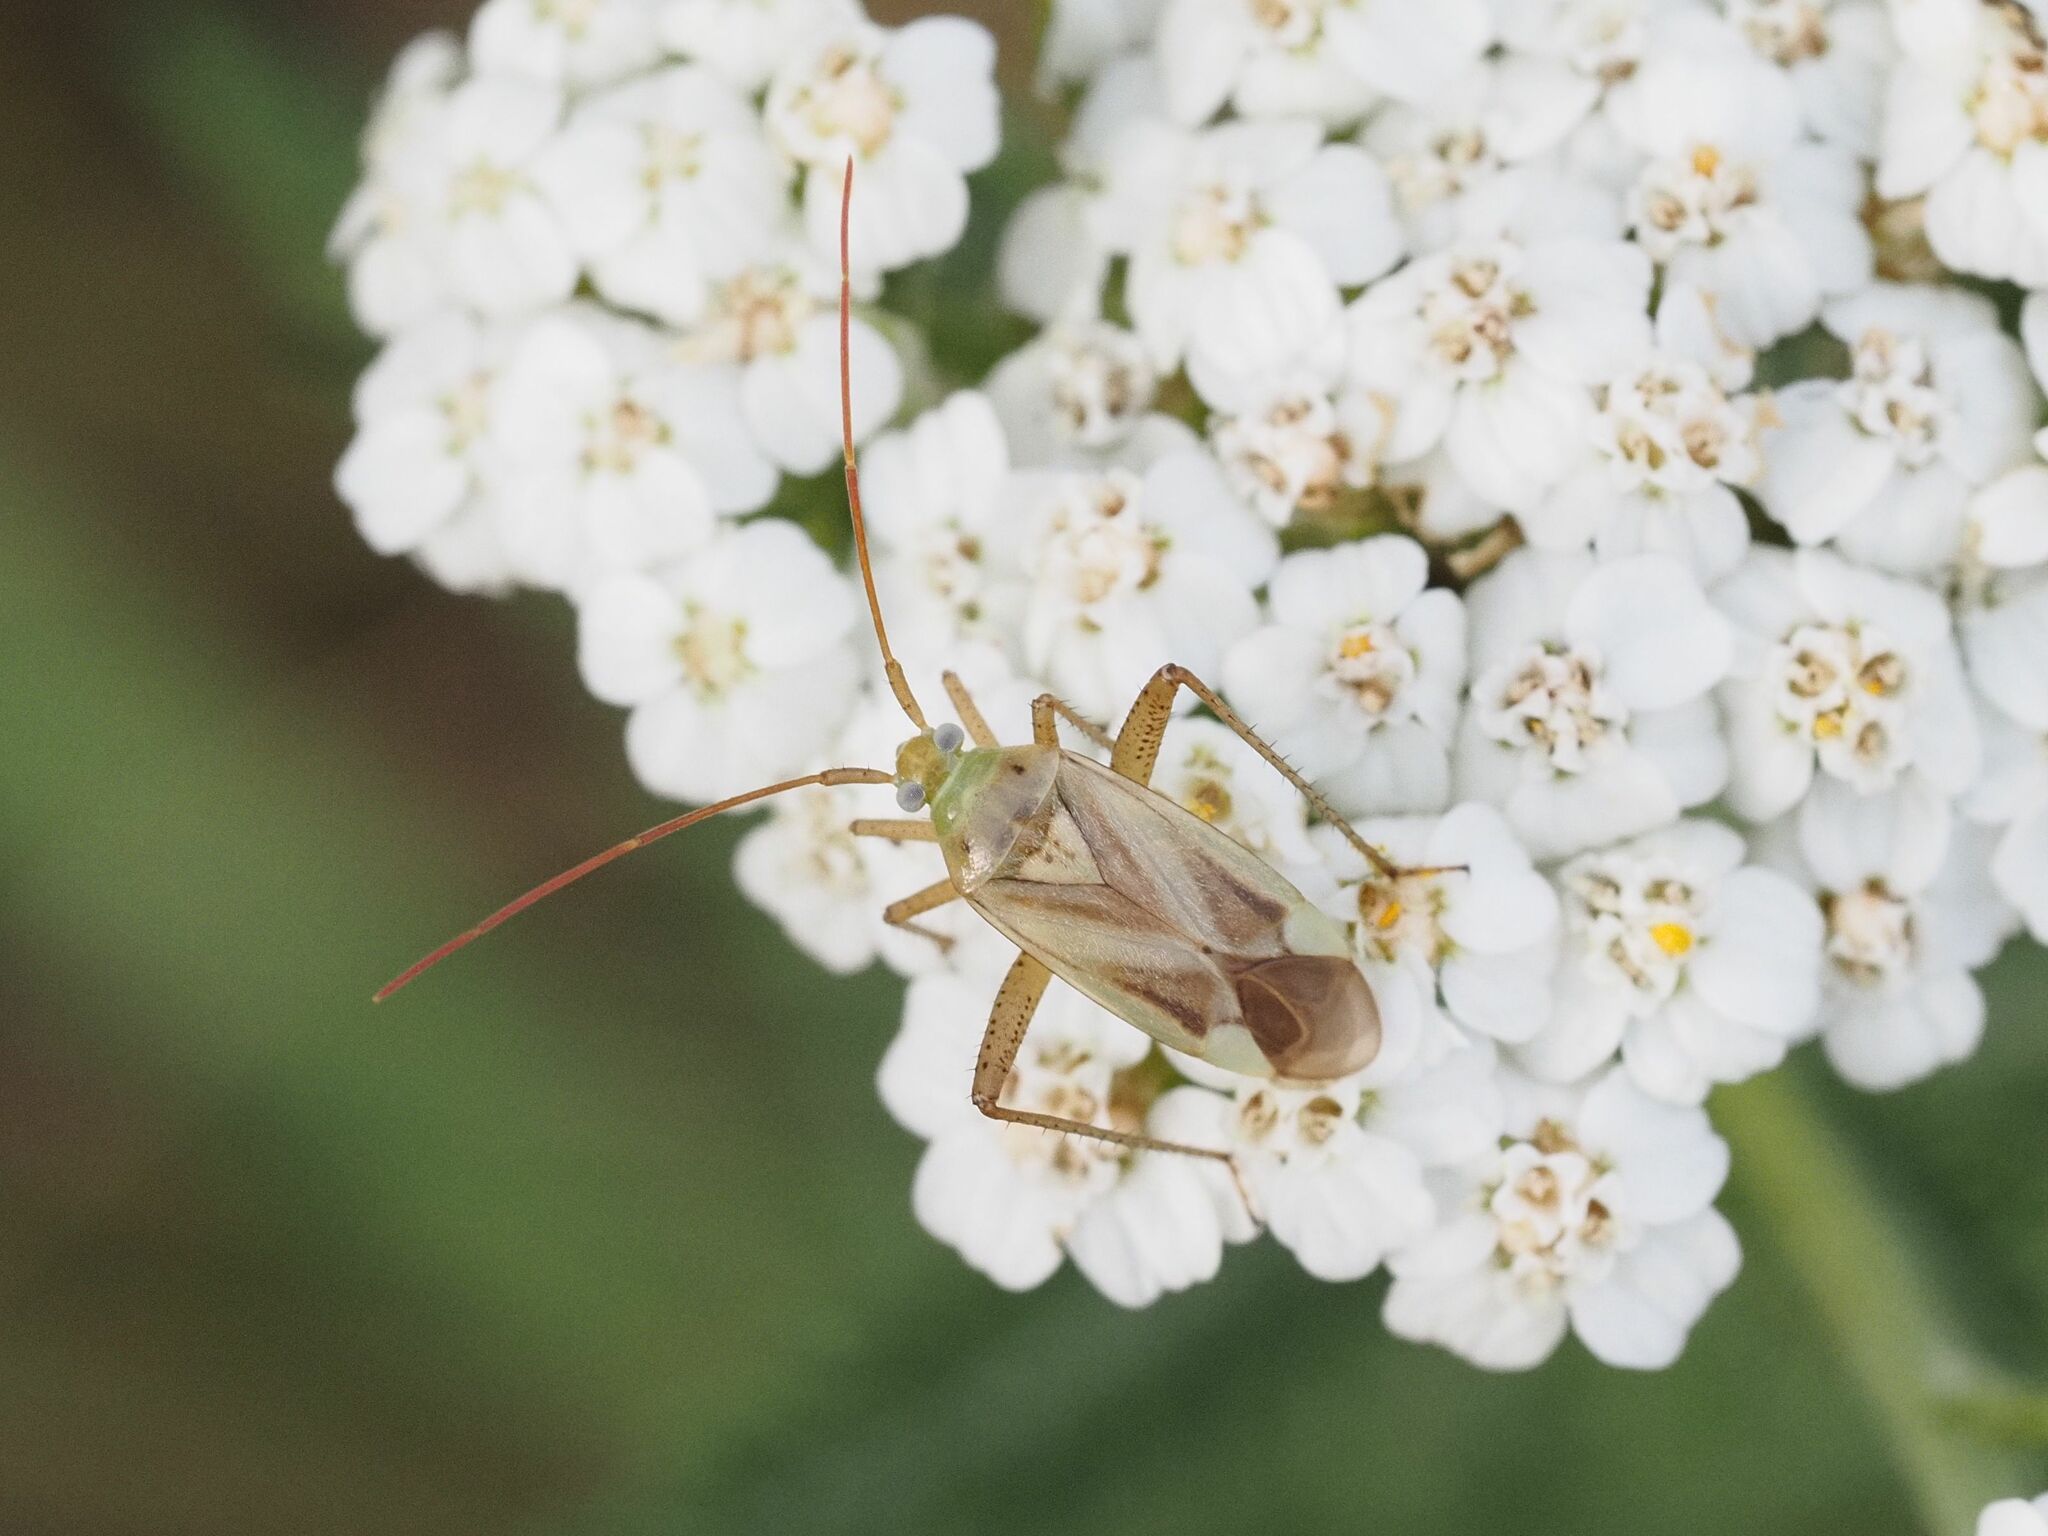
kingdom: Animalia
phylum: Arthropoda
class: Insecta
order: Hemiptera
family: Miridae
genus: Adelphocoris
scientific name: Adelphocoris lineolatus
